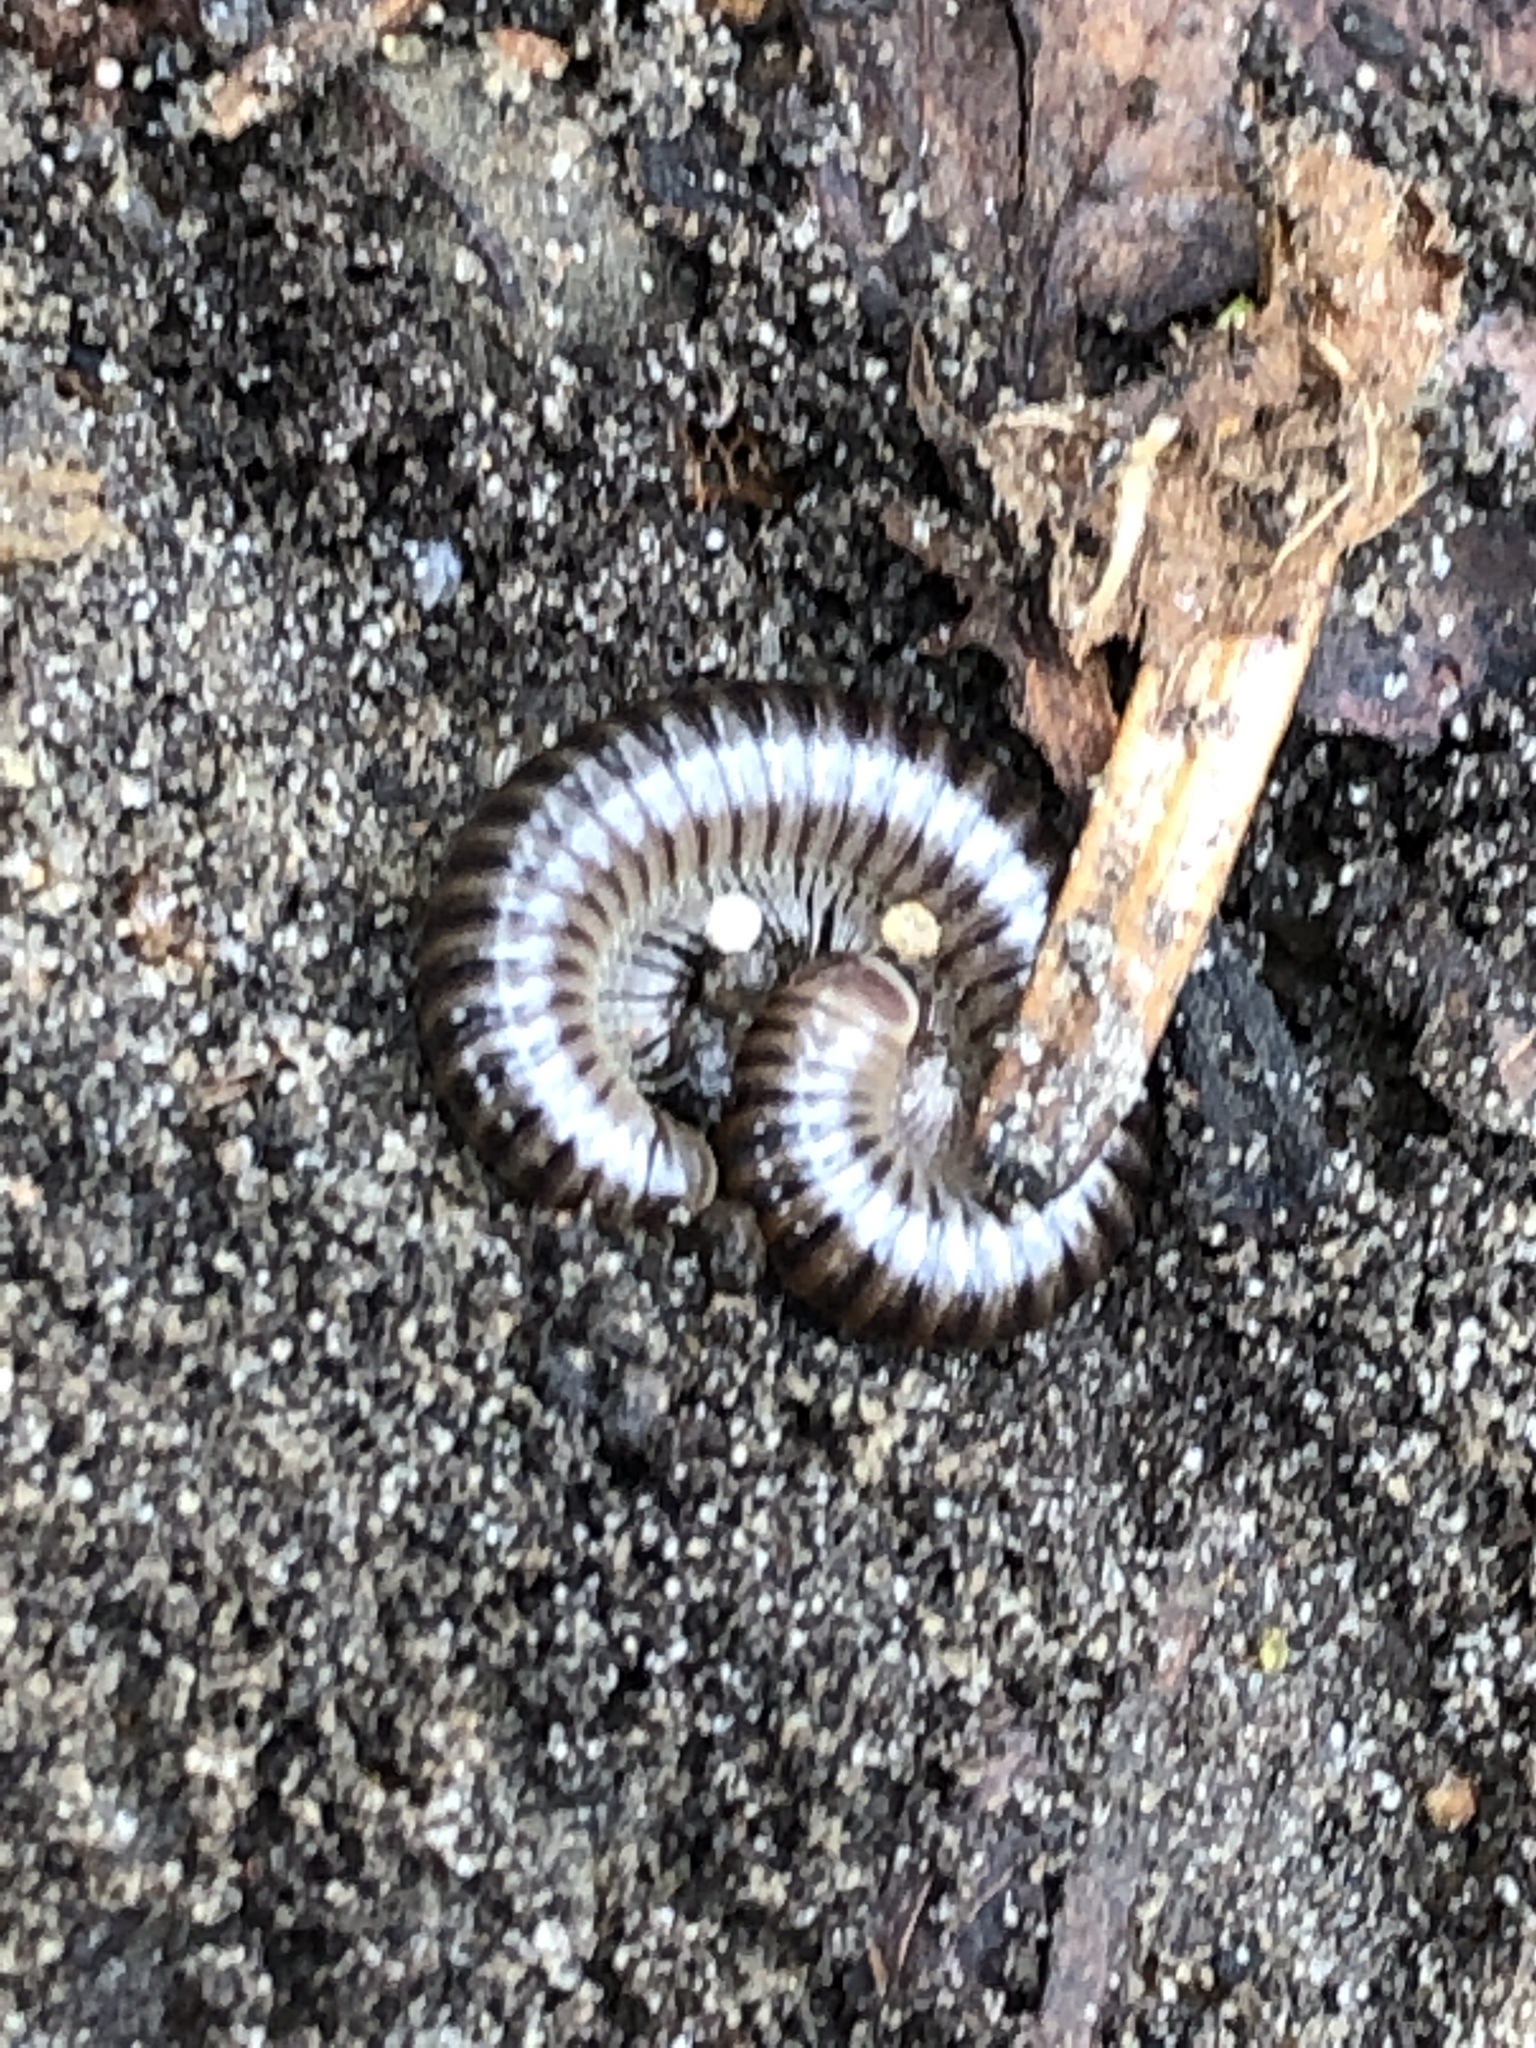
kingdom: Animalia
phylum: Arthropoda
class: Diplopoda
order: Julida
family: Julidae
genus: Cylindroiulus
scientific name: Cylindroiulus caeruleocinctus
